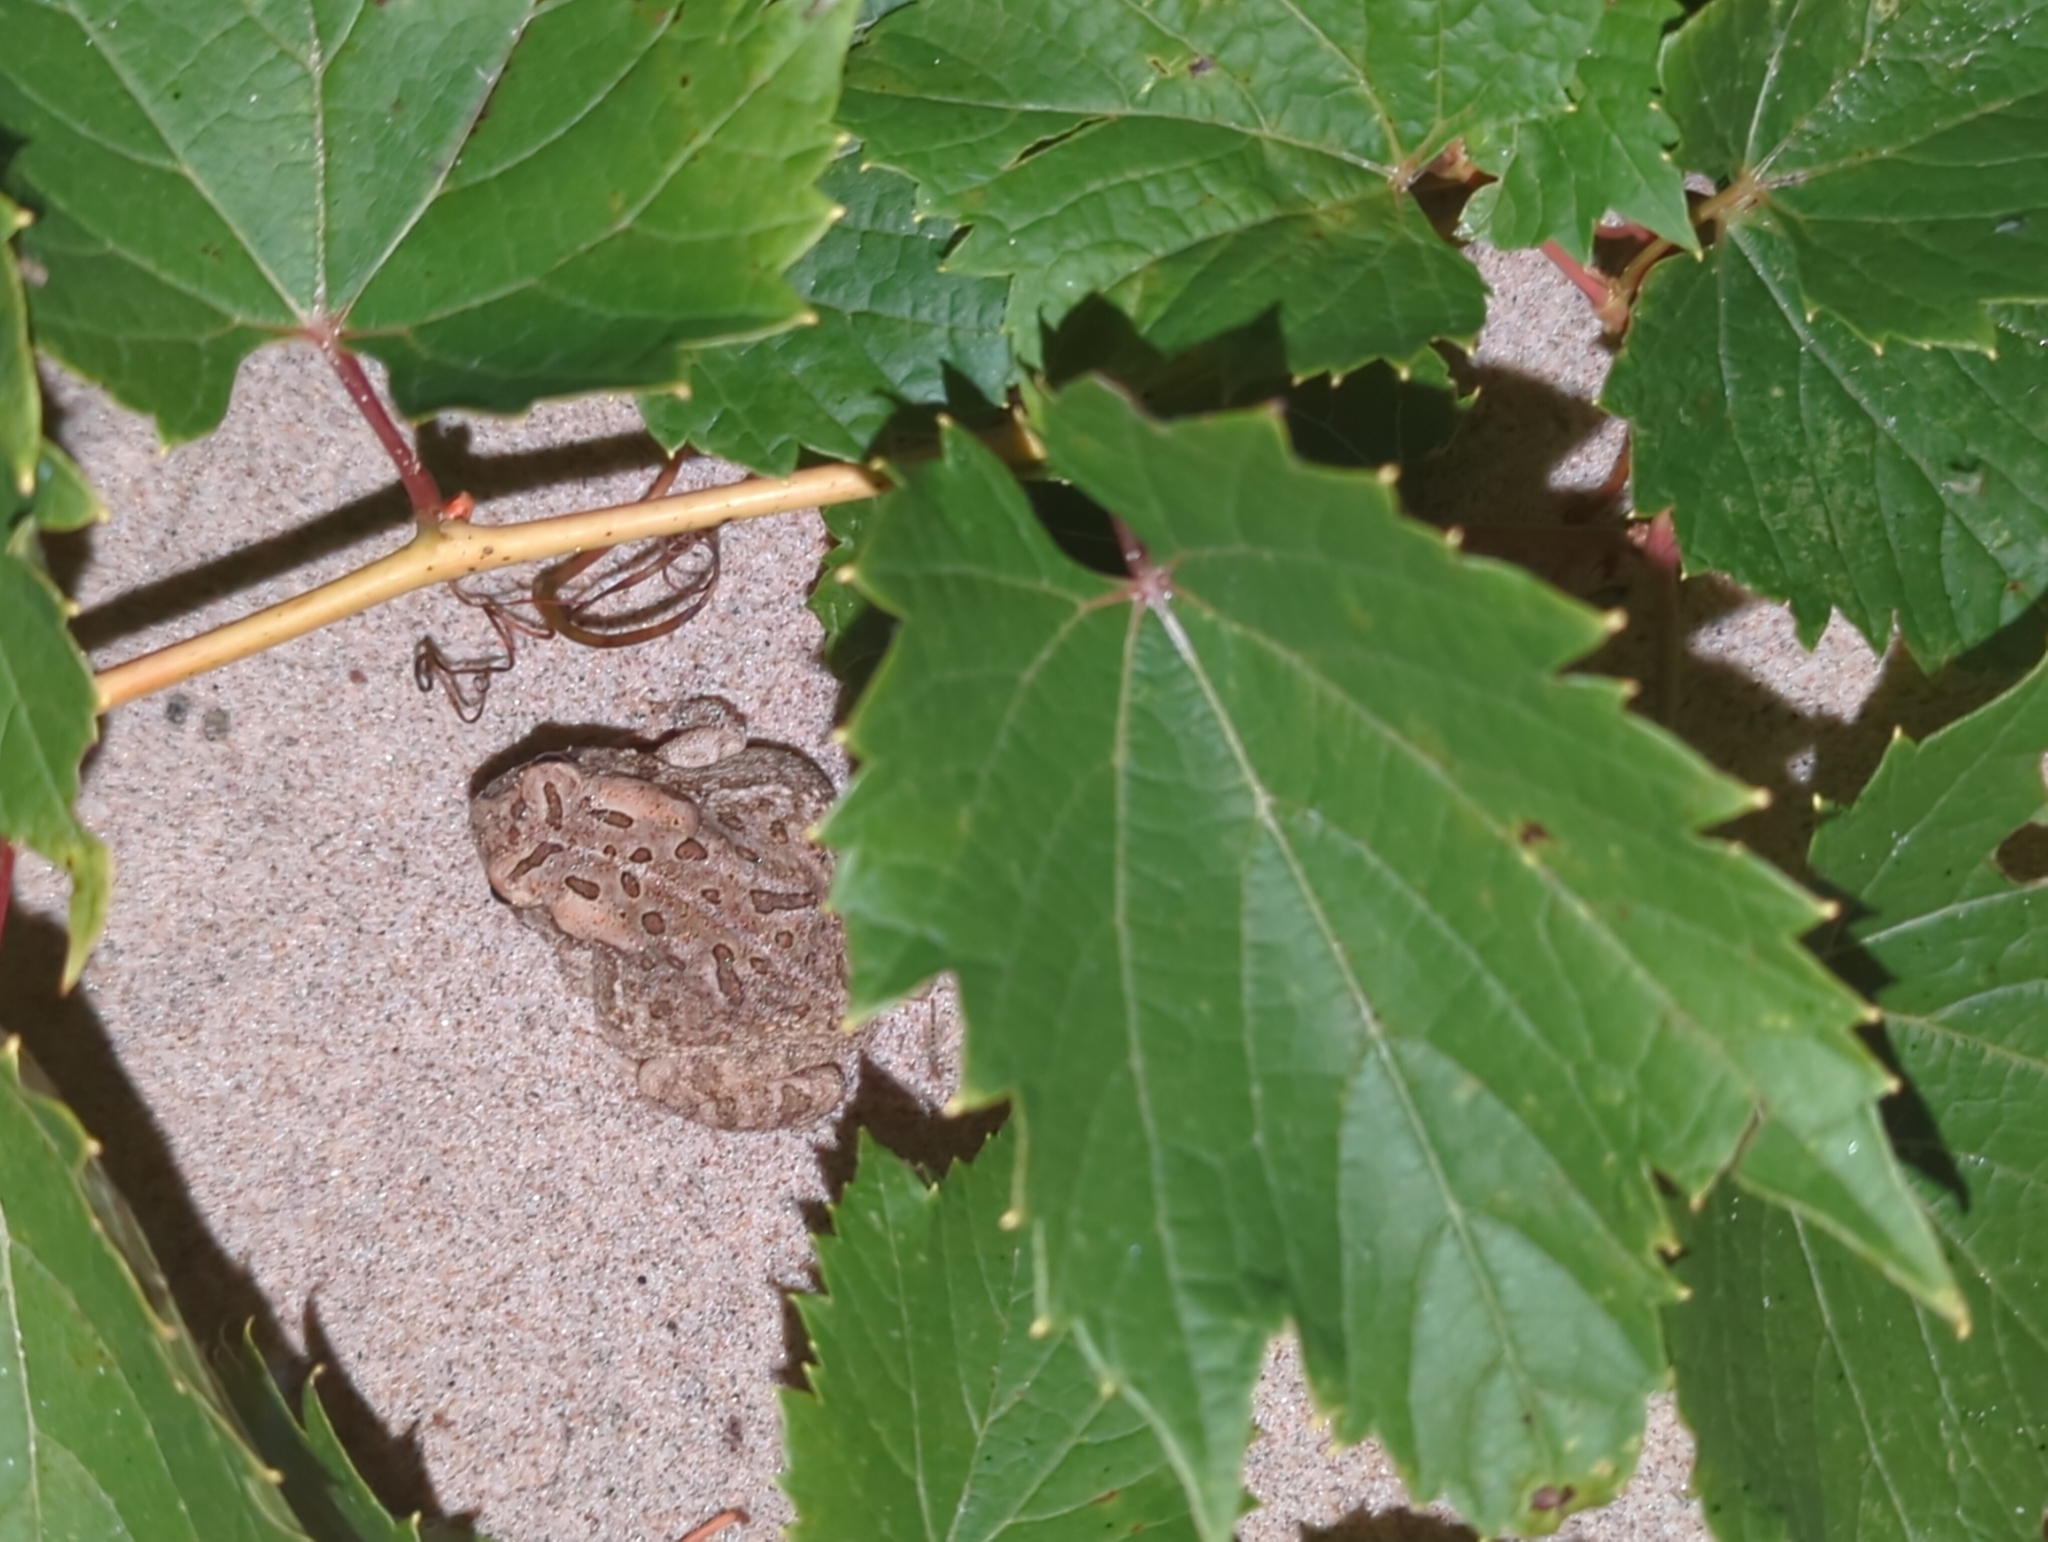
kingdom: Animalia
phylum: Chordata
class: Amphibia
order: Anura
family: Bufonidae
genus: Anaxyrus
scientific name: Anaxyrus fowleri
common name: Fowler's toad
